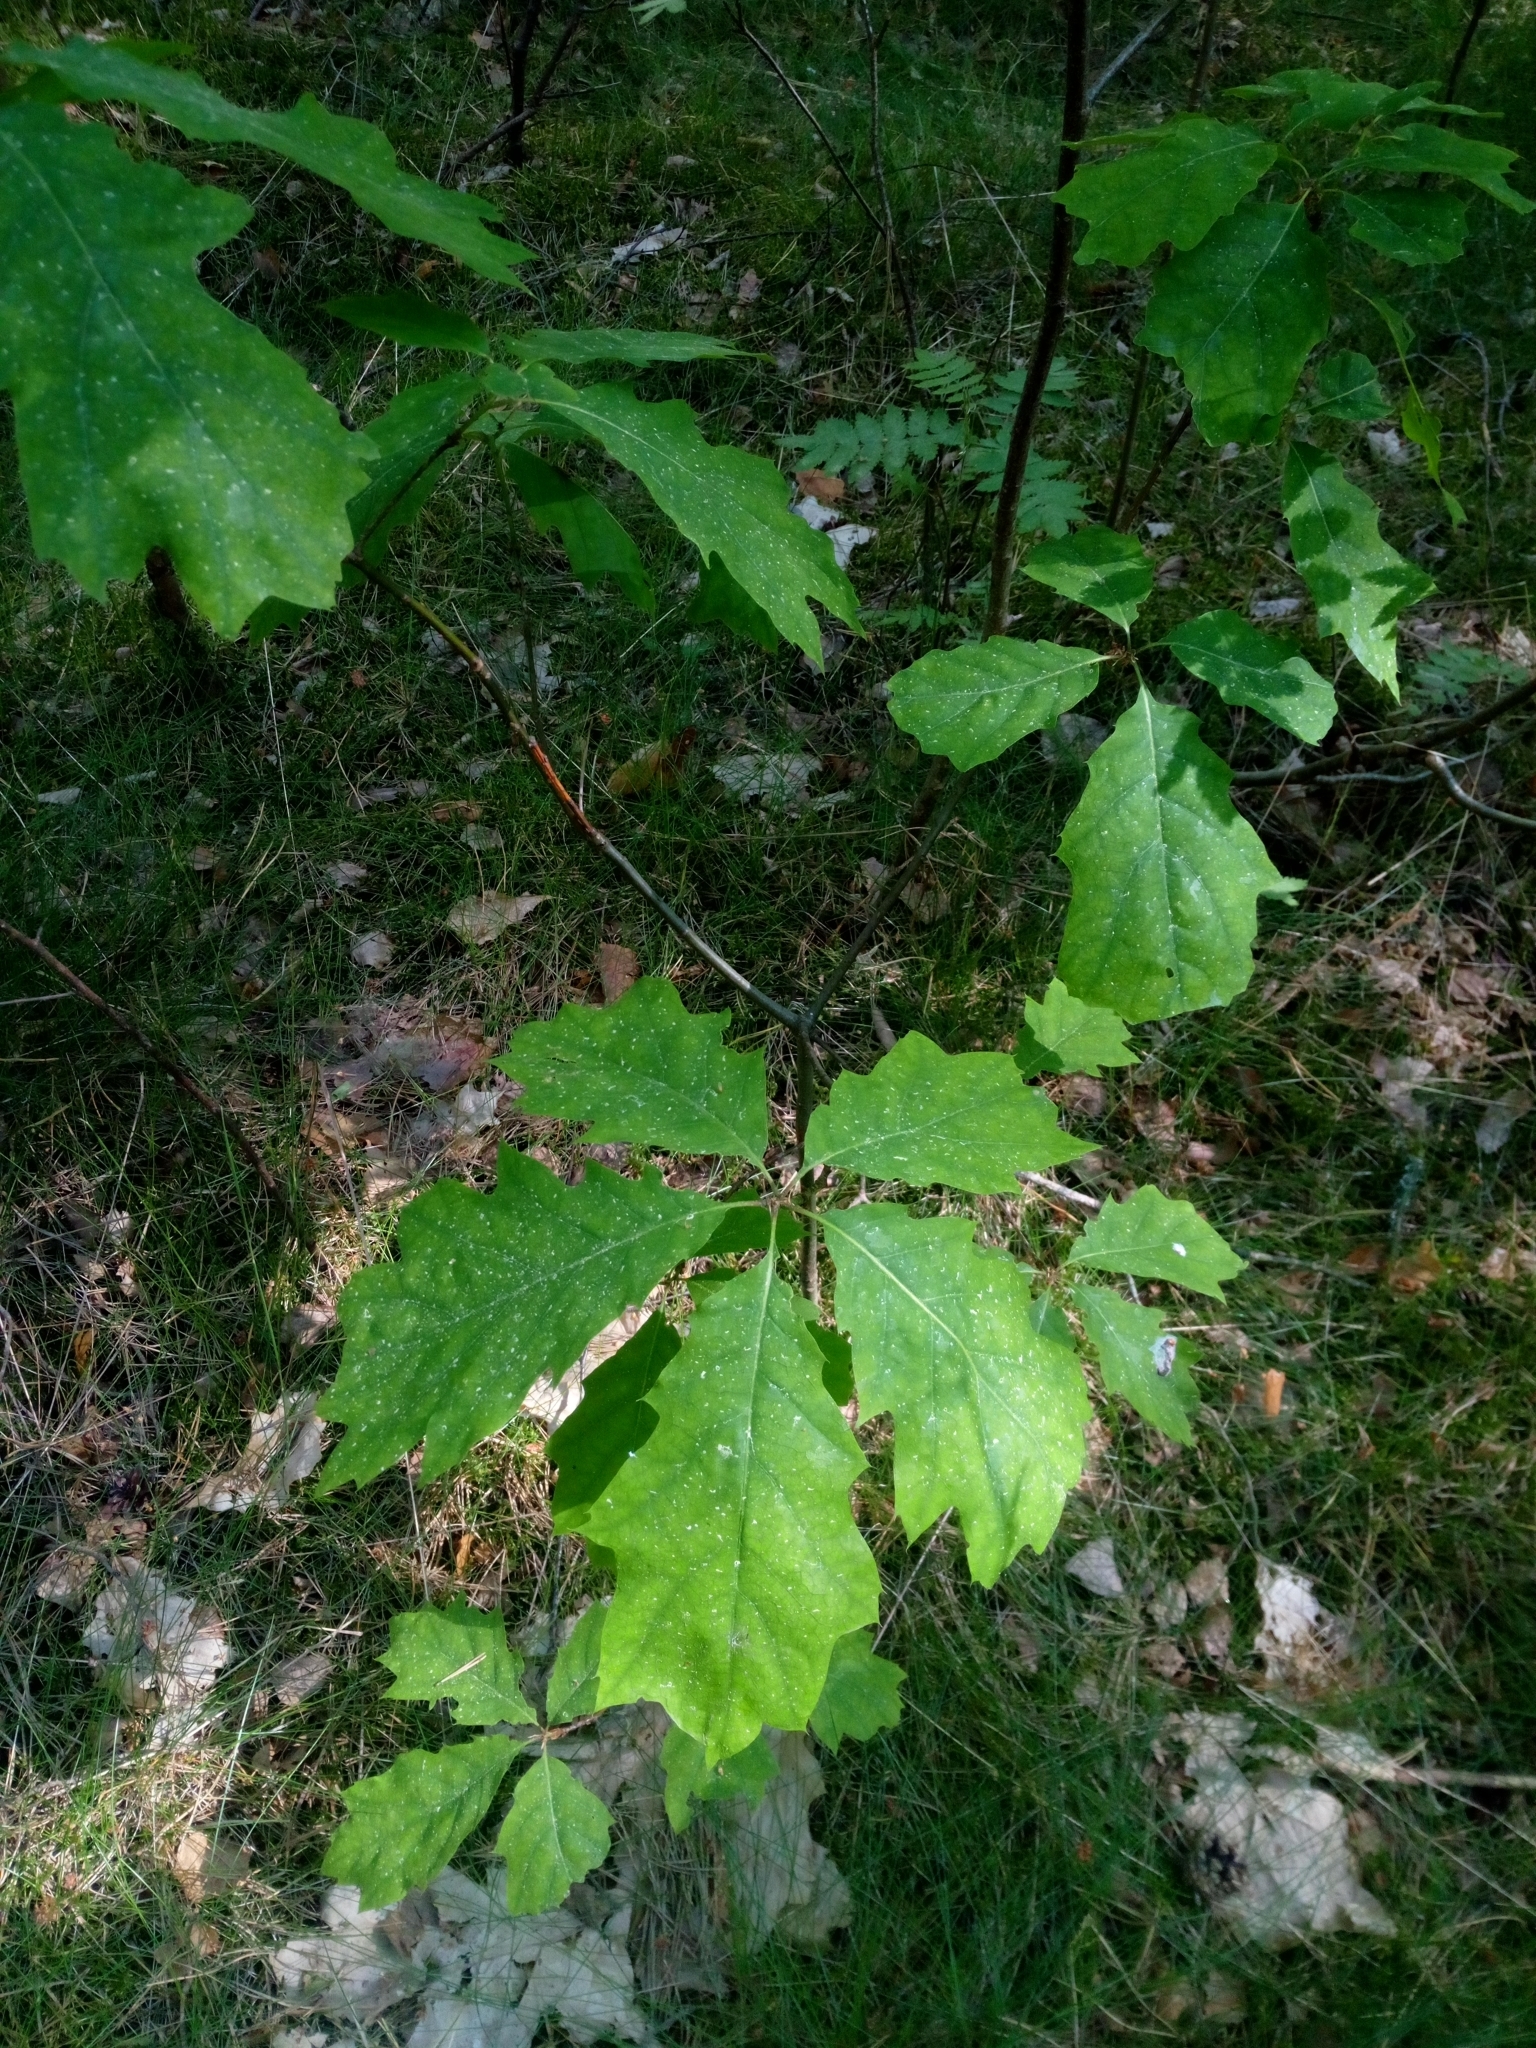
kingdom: Plantae
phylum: Tracheophyta
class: Magnoliopsida
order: Fagales
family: Fagaceae
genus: Quercus
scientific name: Quercus rubra
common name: Red oak
